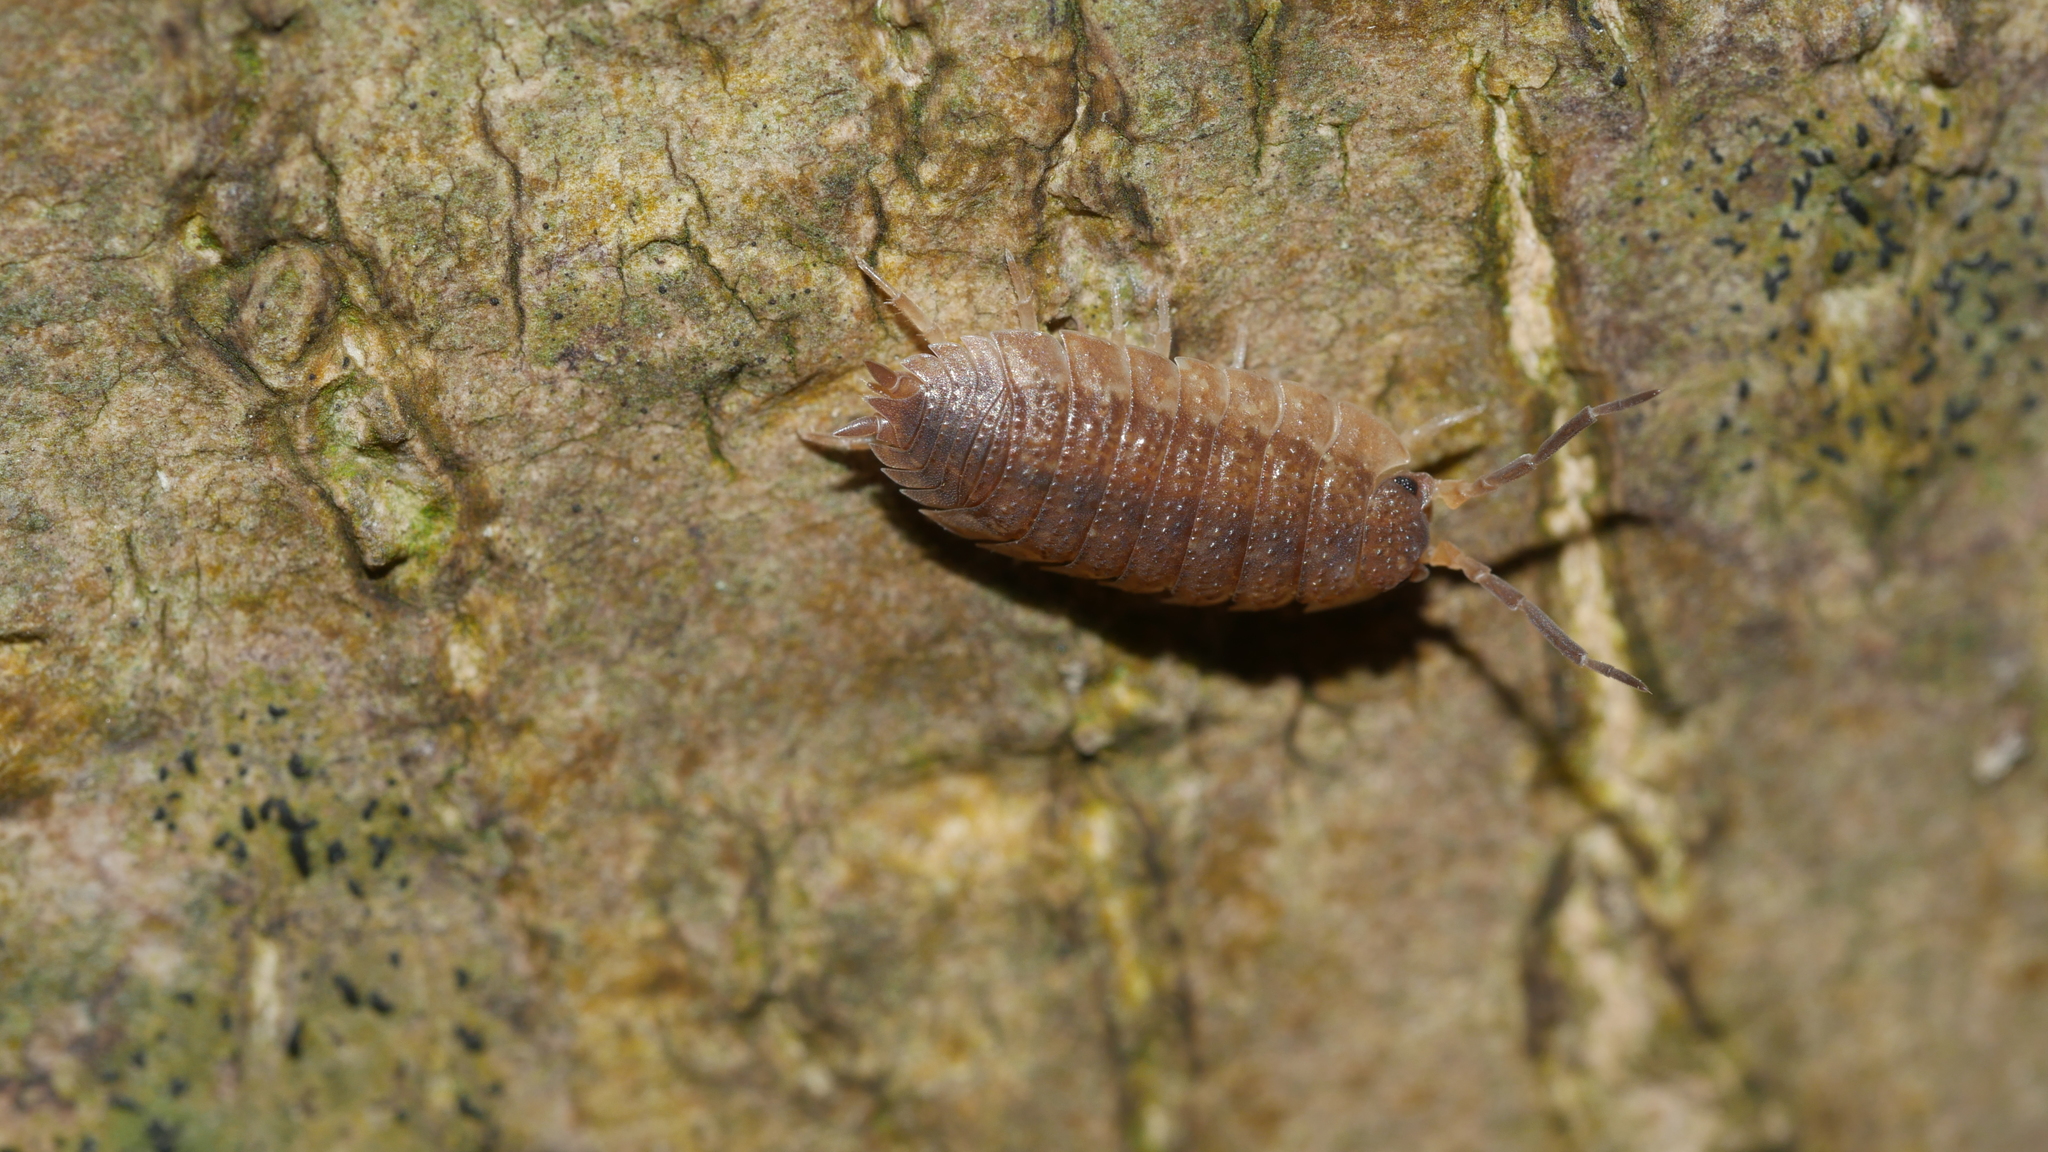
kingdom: Animalia
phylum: Arthropoda
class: Malacostraca
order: Isopoda
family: Porcellionidae
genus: Porcellio
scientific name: Porcellio scaber
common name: Common rough woodlouse
